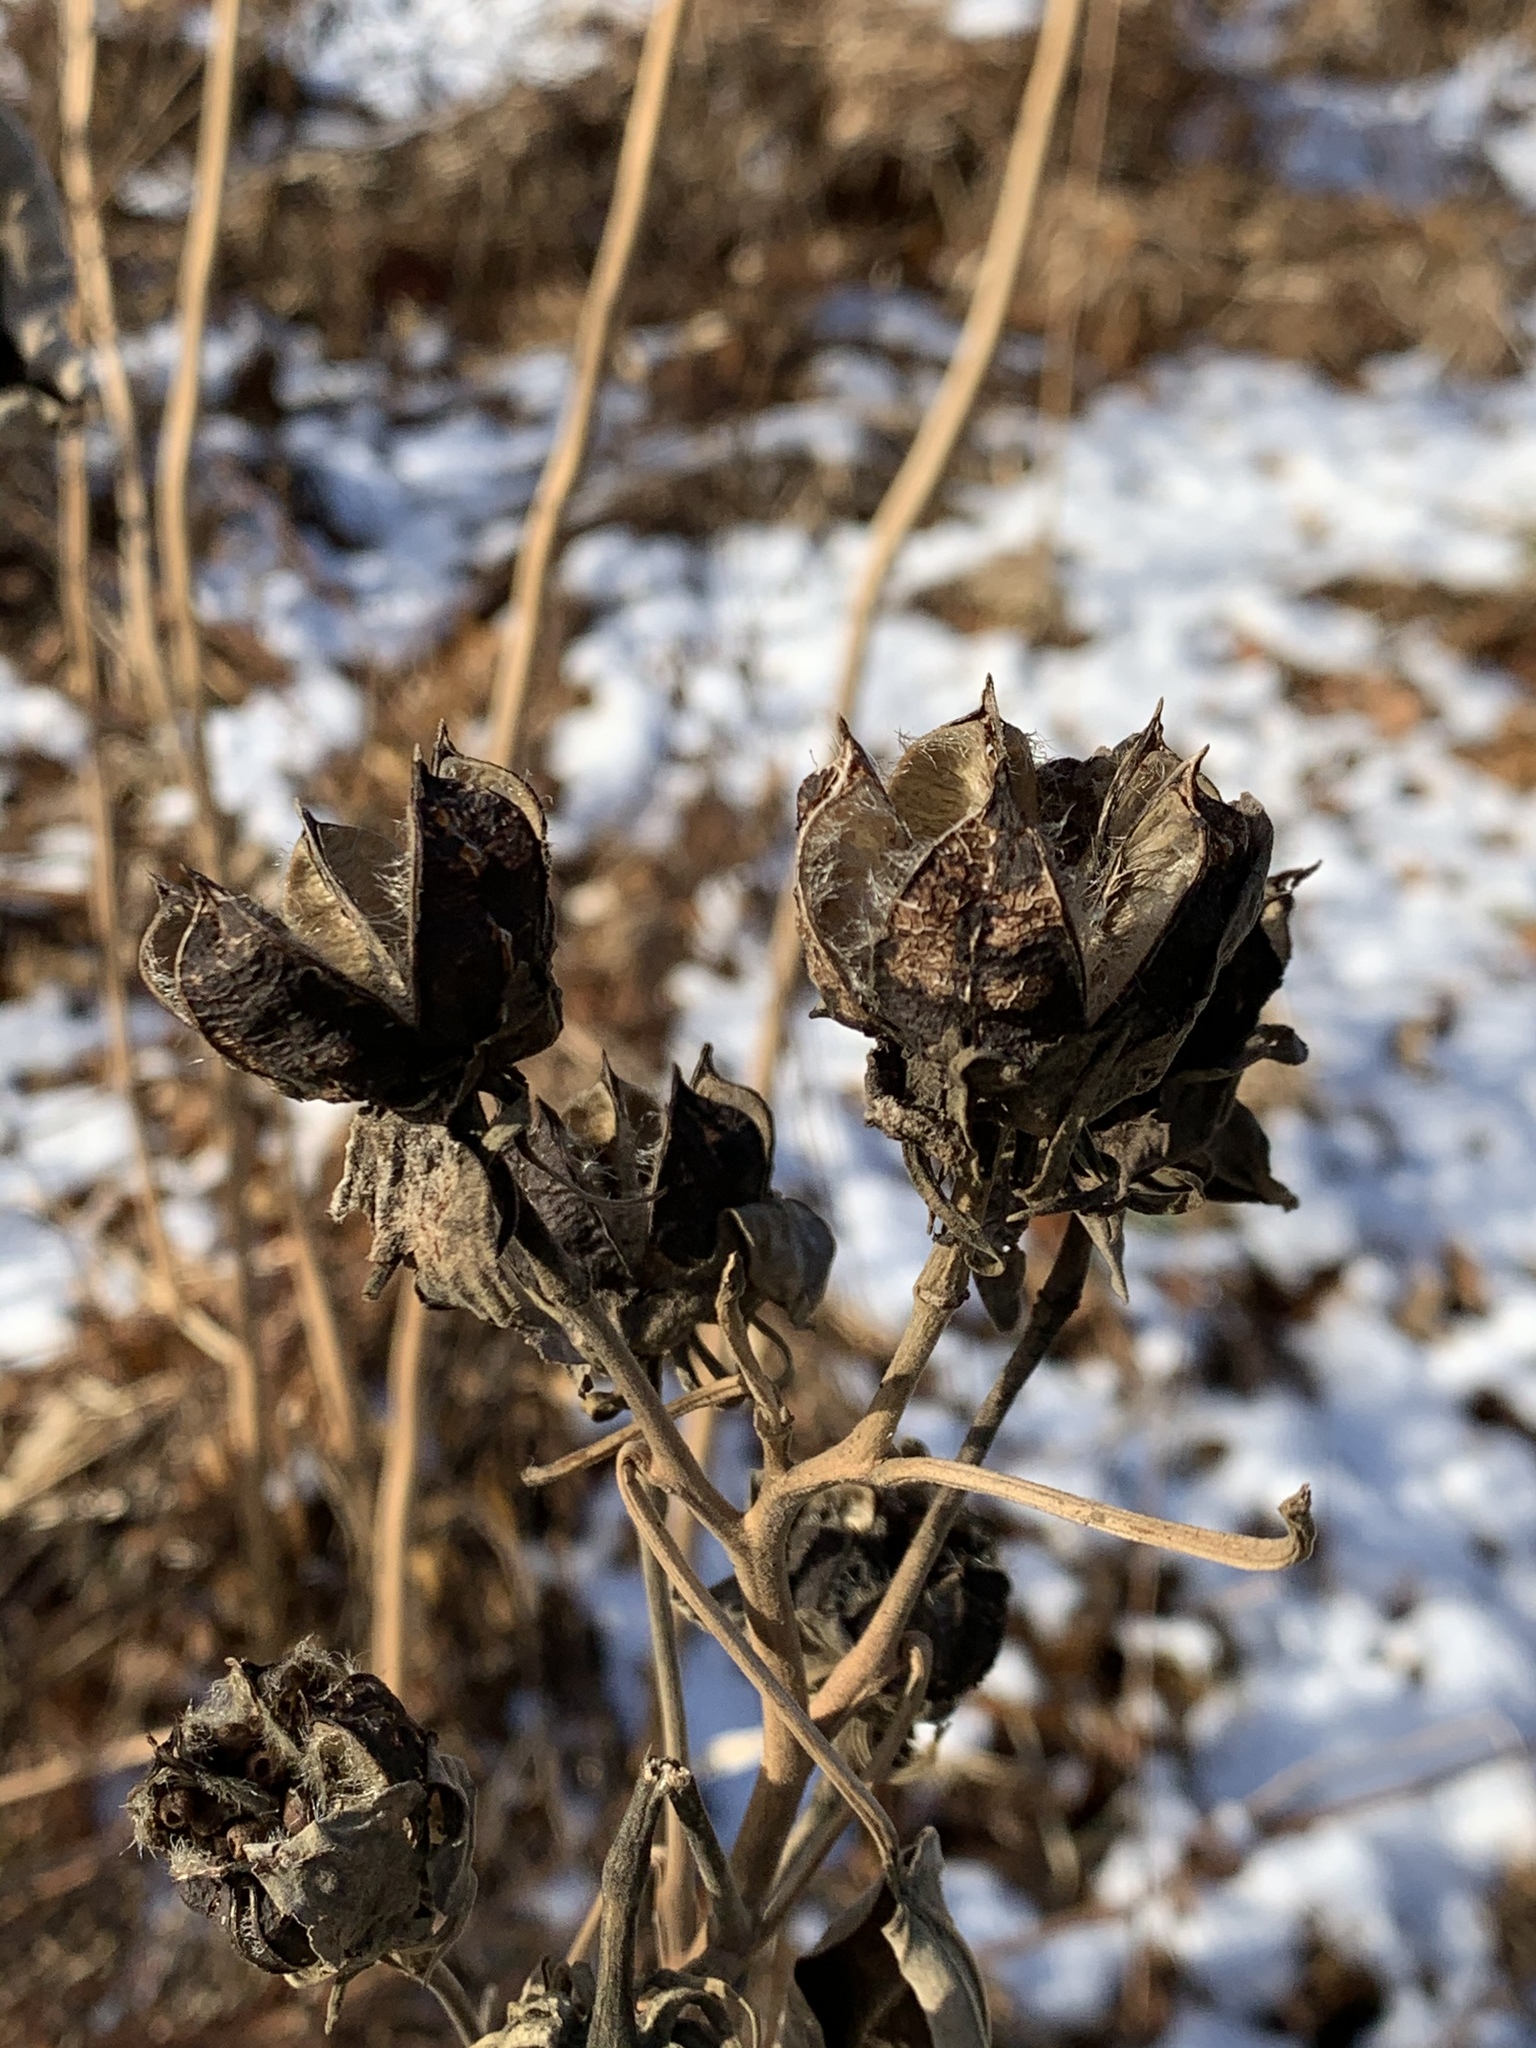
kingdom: Plantae
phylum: Tracheophyta
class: Magnoliopsida
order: Malvales
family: Malvaceae
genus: Hibiscus
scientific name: Hibiscus moscheutos
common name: Common rose-mallow
